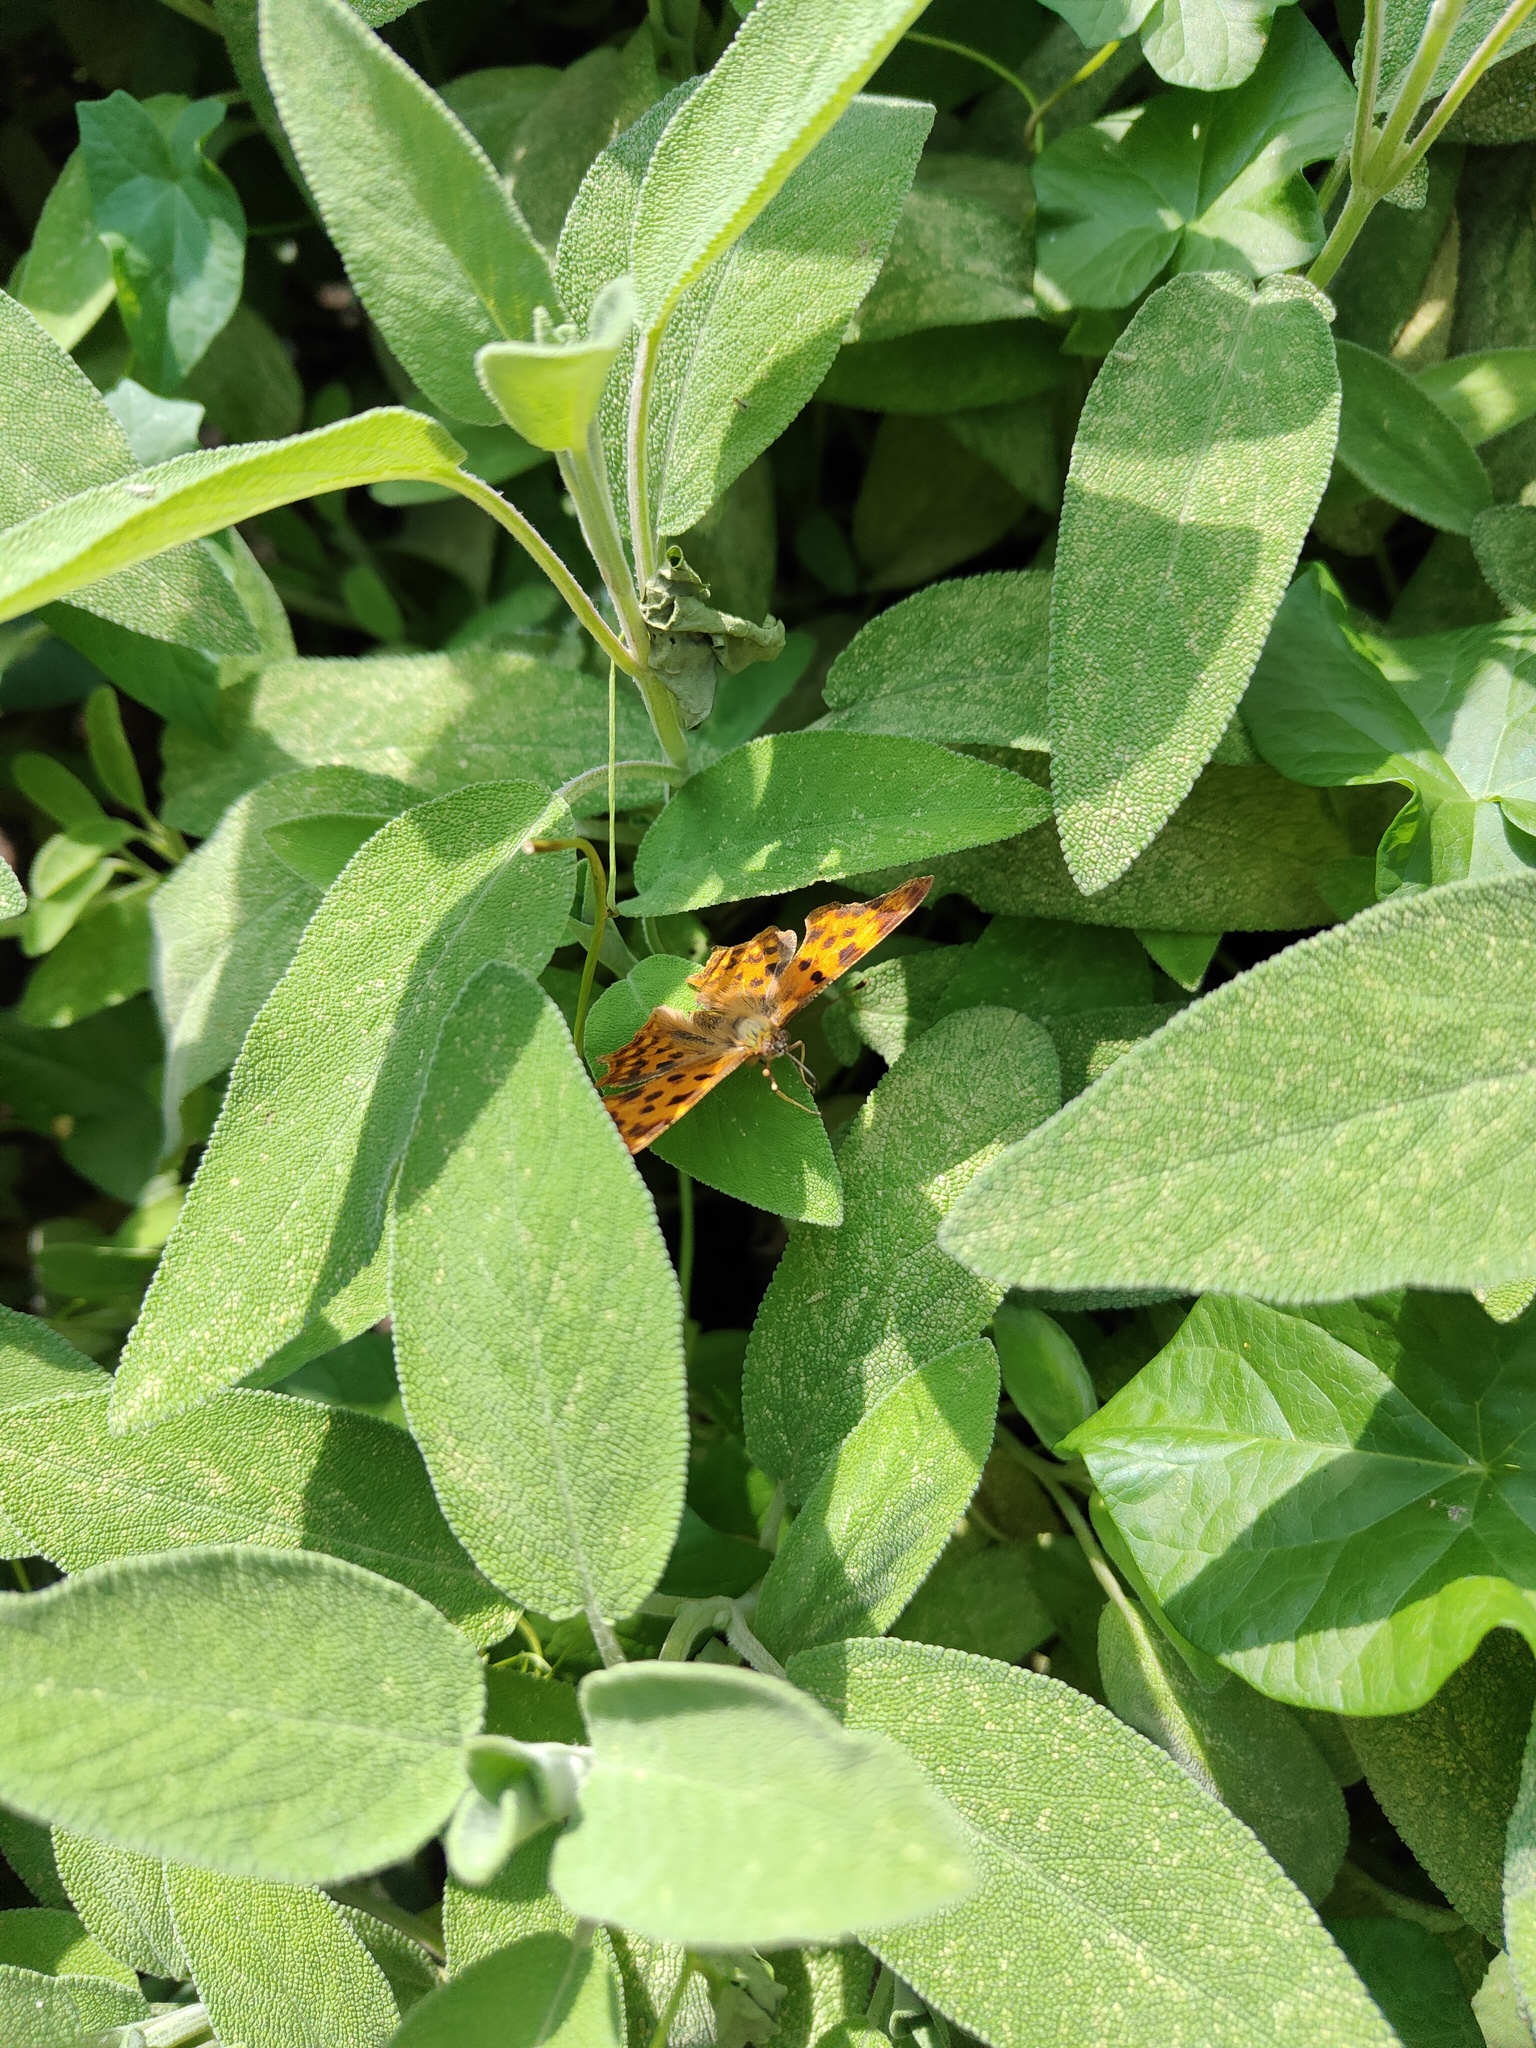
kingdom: Animalia
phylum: Arthropoda
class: Insecta
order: Lepidoptera
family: Nymphalidae
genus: Polygonia
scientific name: Polygonia c-album
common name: Comma
